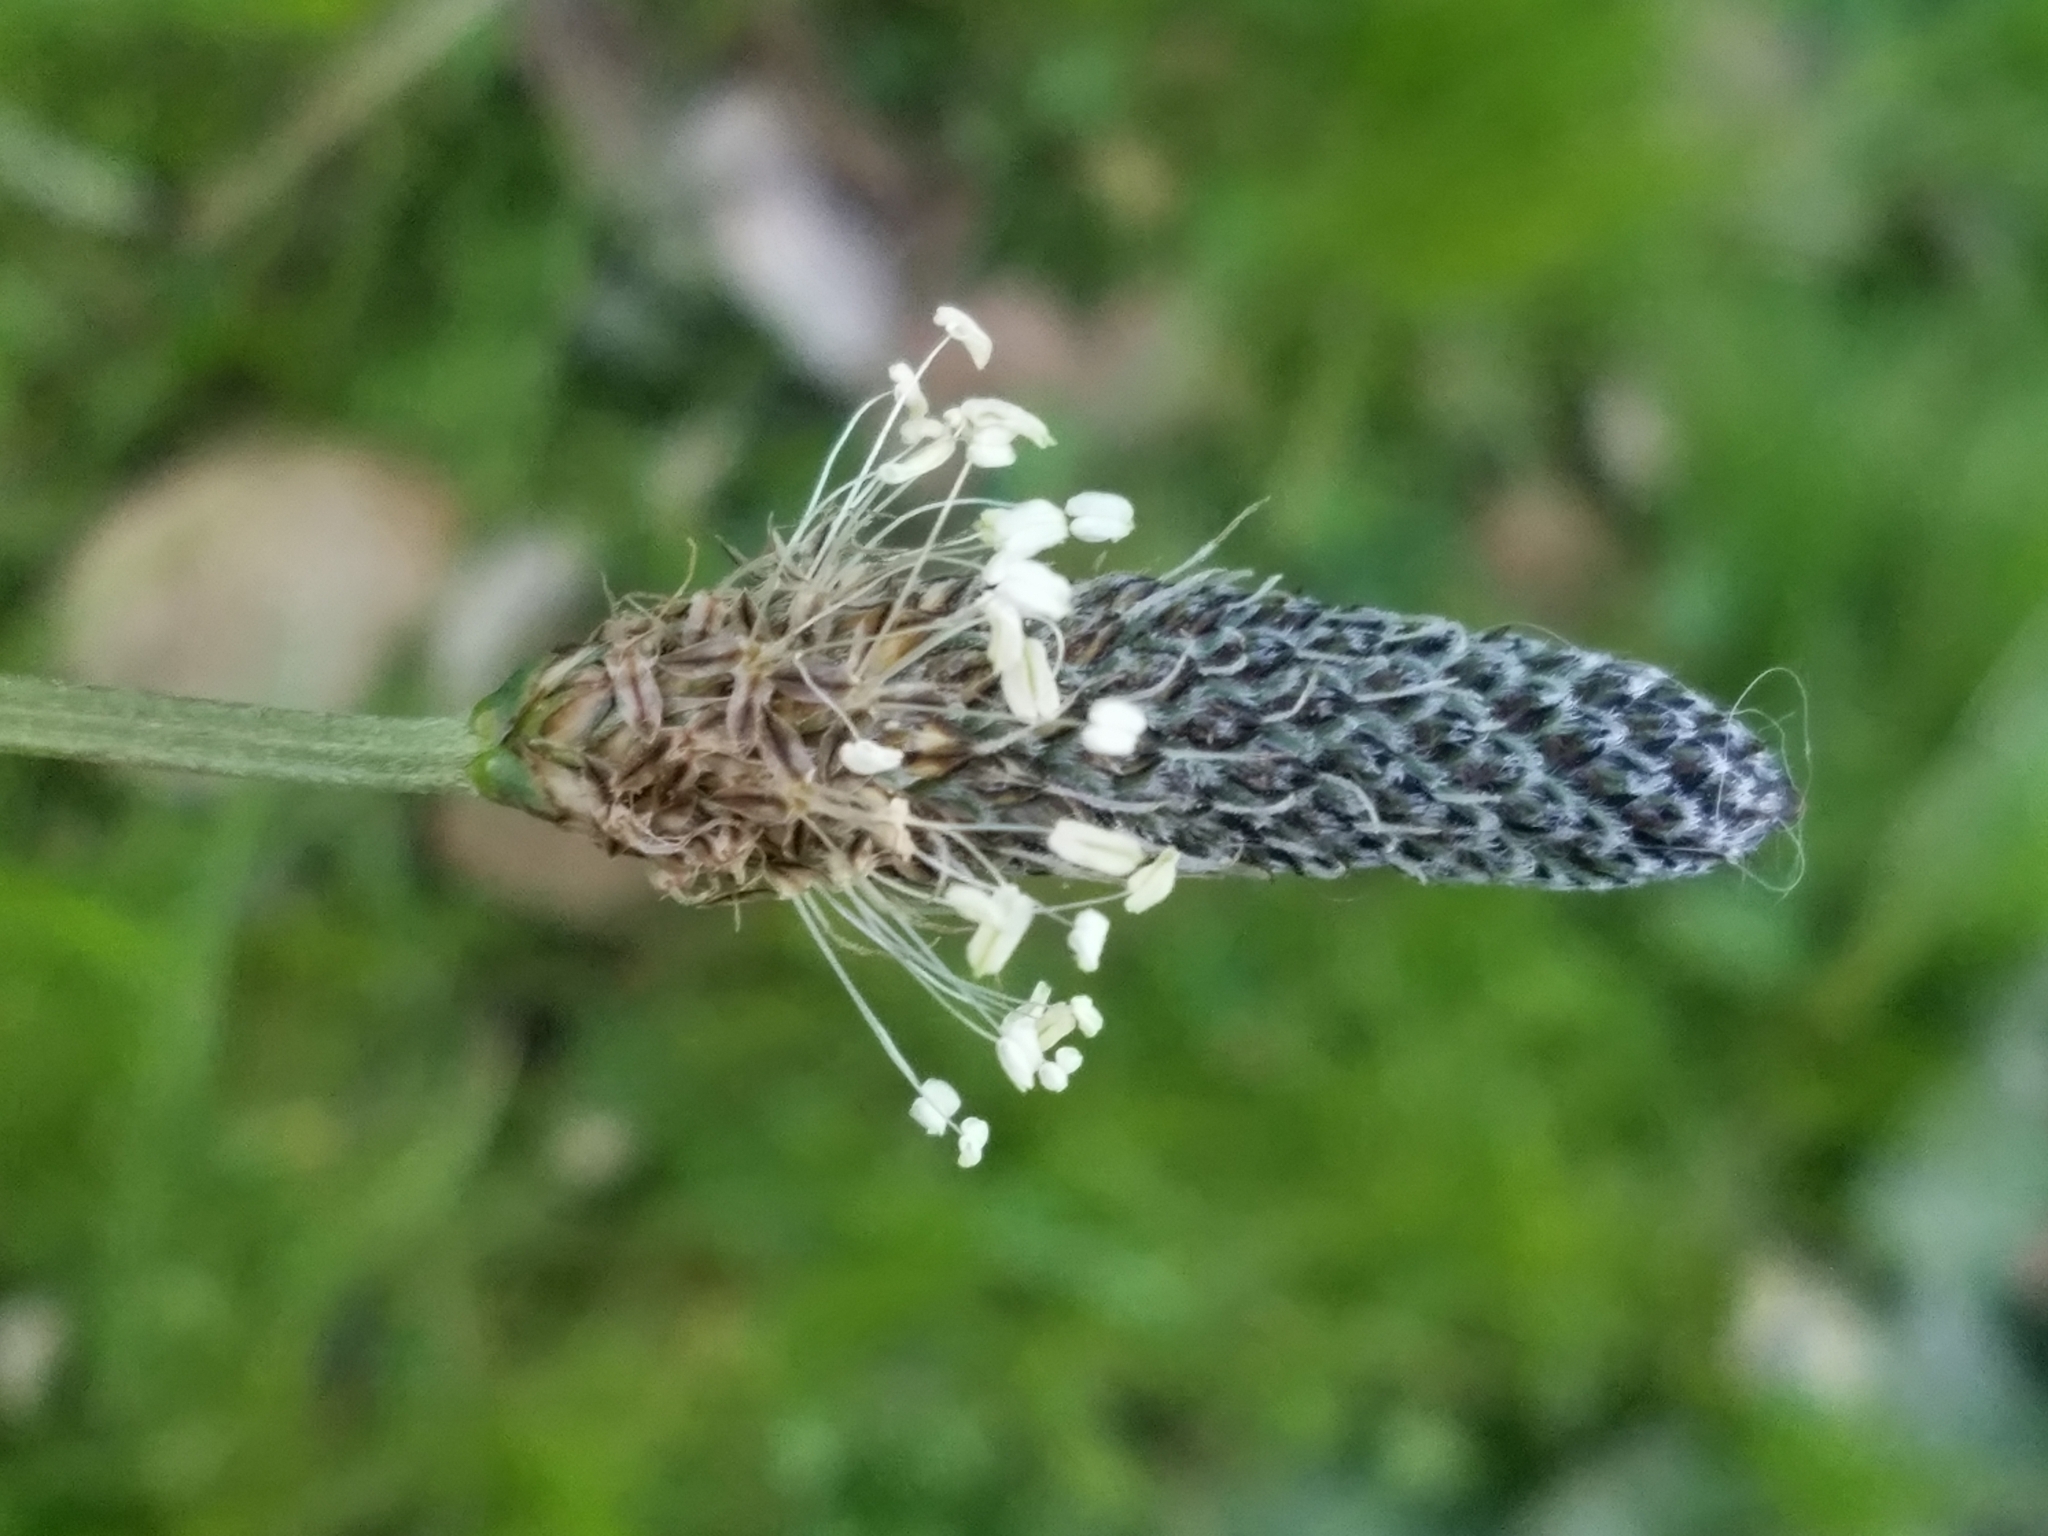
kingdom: Plantae
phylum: Tracheophyta
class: Magnoliopsida
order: Lamiales
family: Plantaginaceae
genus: Plantago
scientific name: Plantago lanceolata
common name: Ribwort plantain
